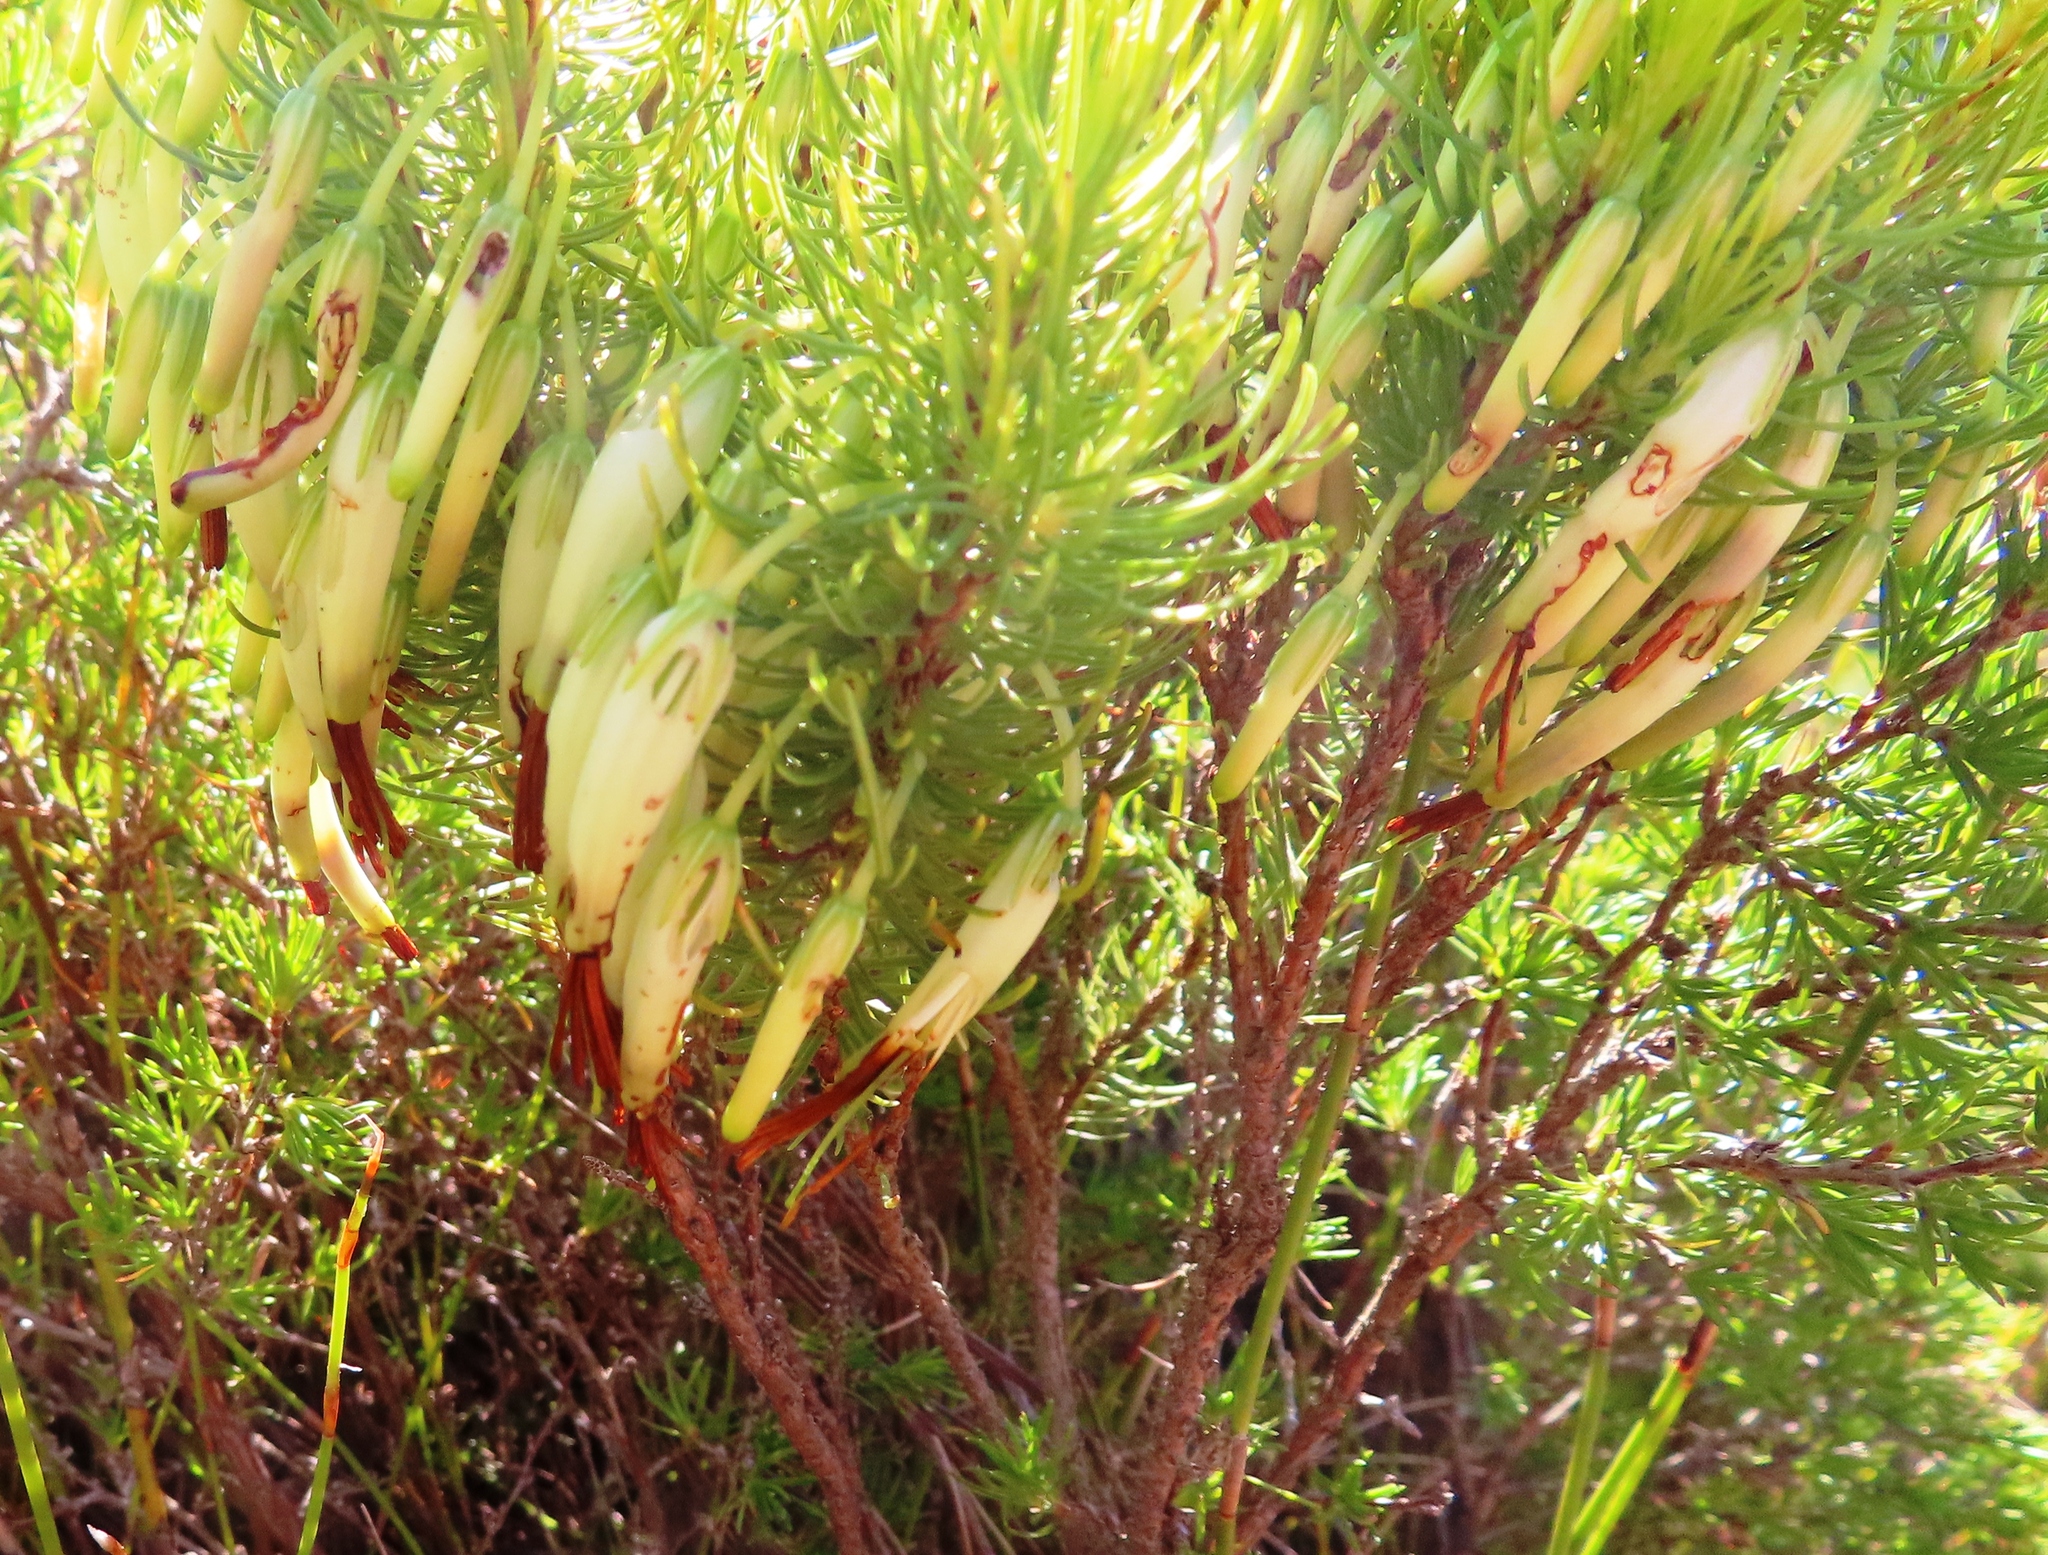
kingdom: Plantae
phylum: Tracheophyta
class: Magnoliopsida
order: Ericales
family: Ericaceae
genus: Erica
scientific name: Erica plukenetii
